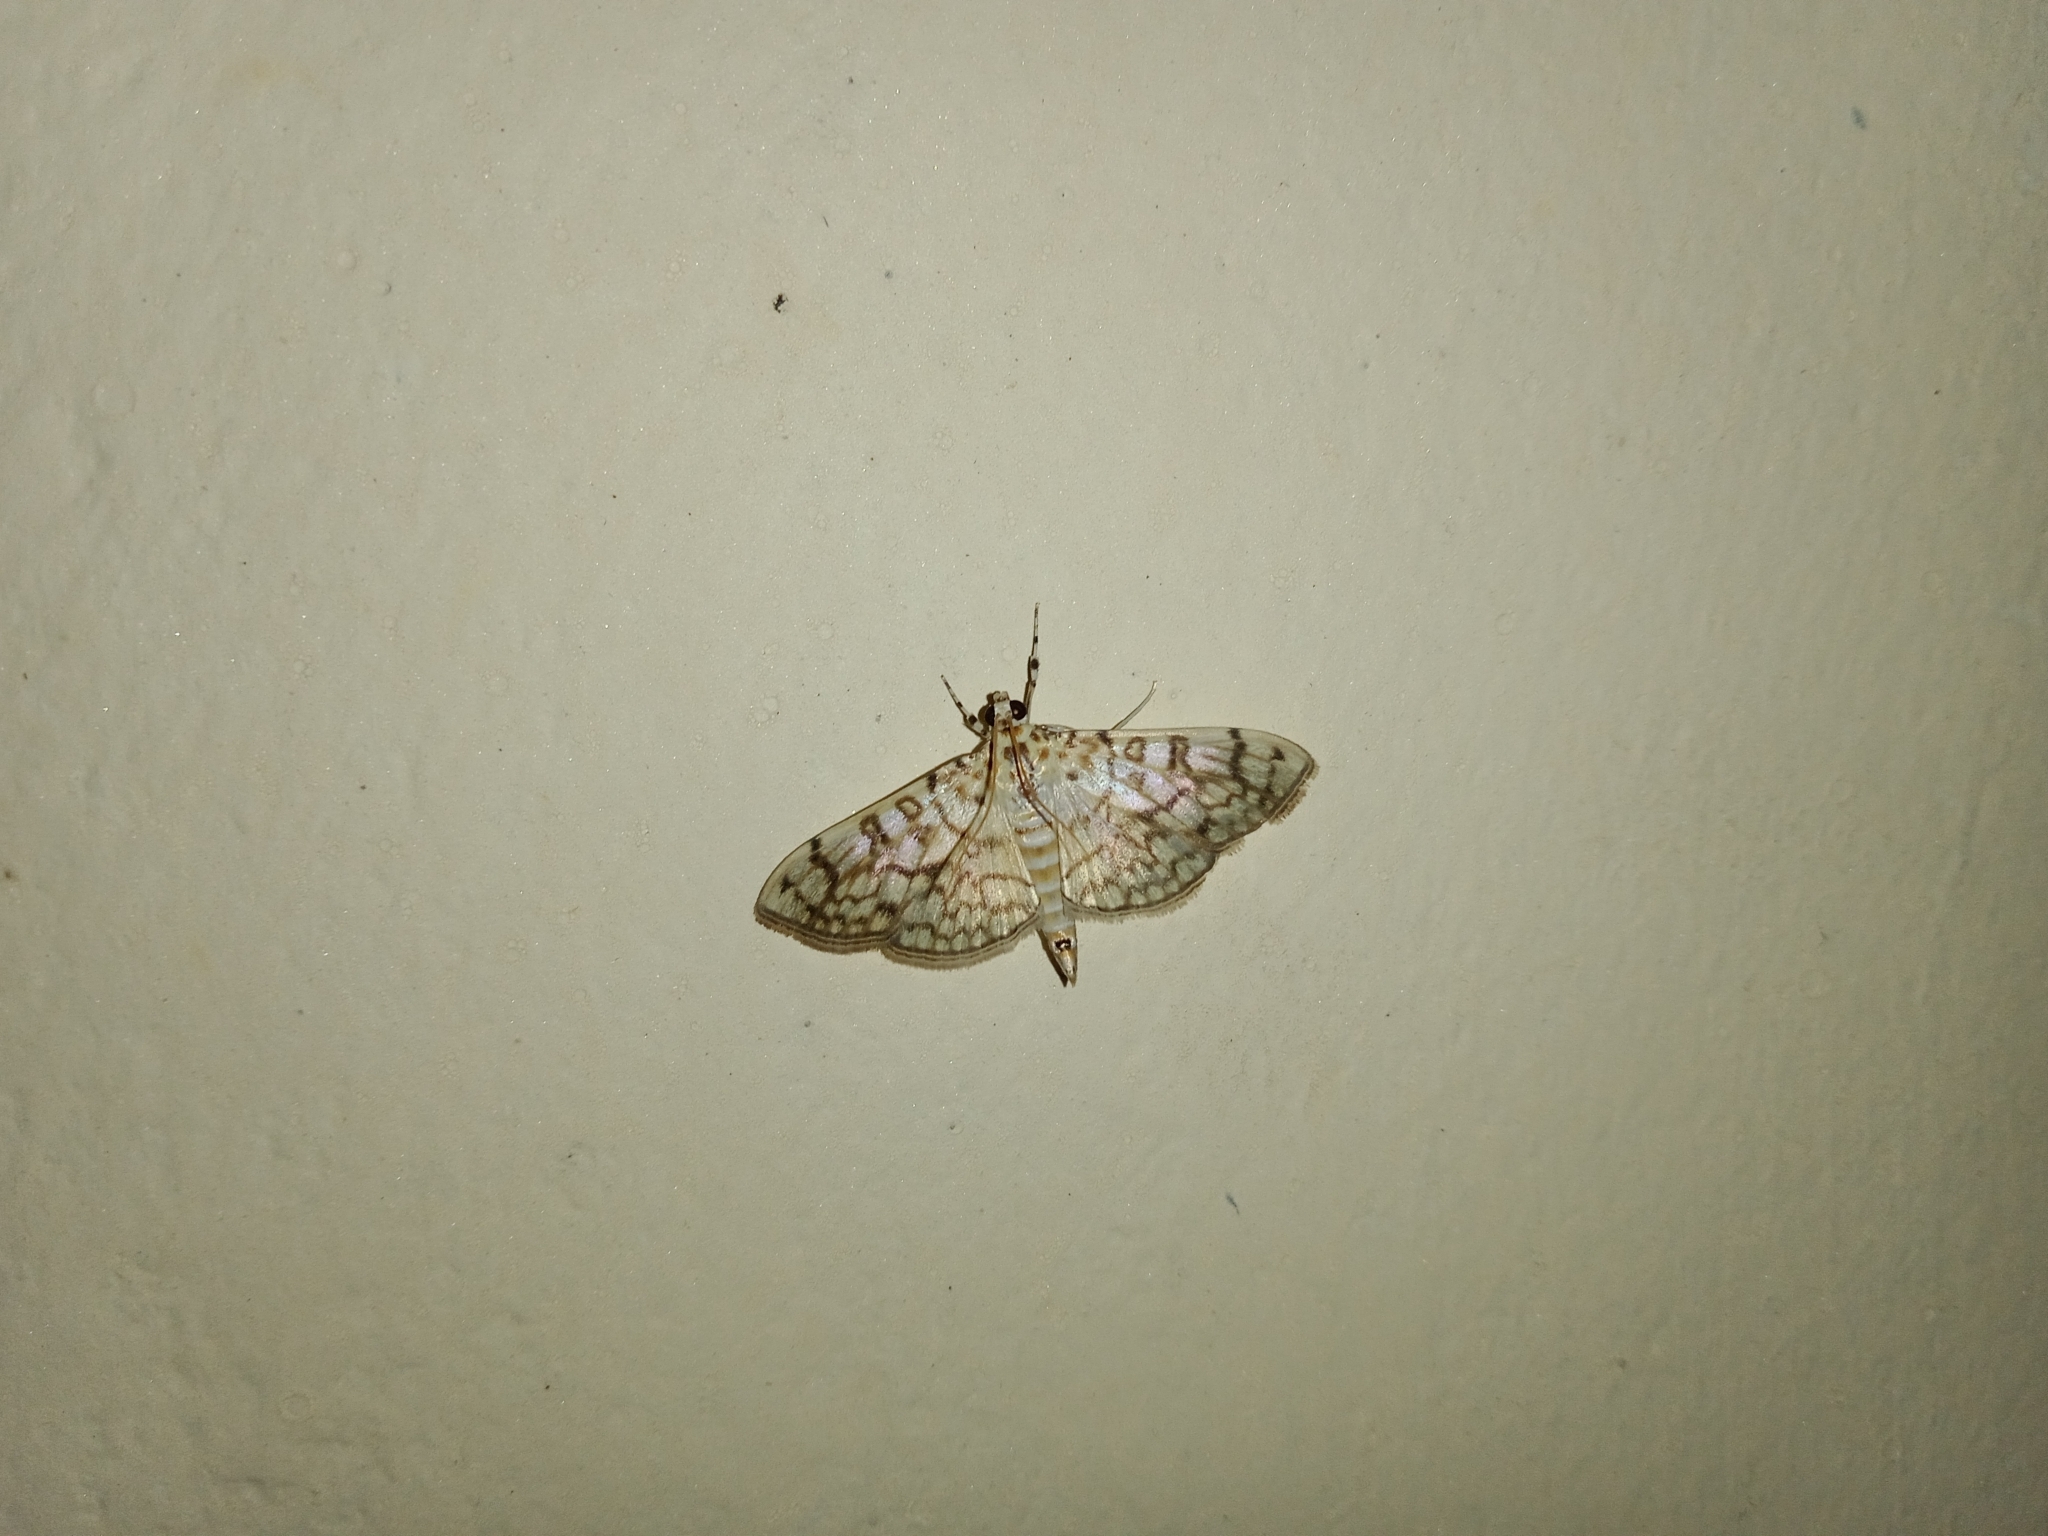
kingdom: Animalia
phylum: Arthropoda
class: Insecta
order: Lepidoptera
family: Crambidae
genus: Haritalodes
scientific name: Haritalodes derogata
